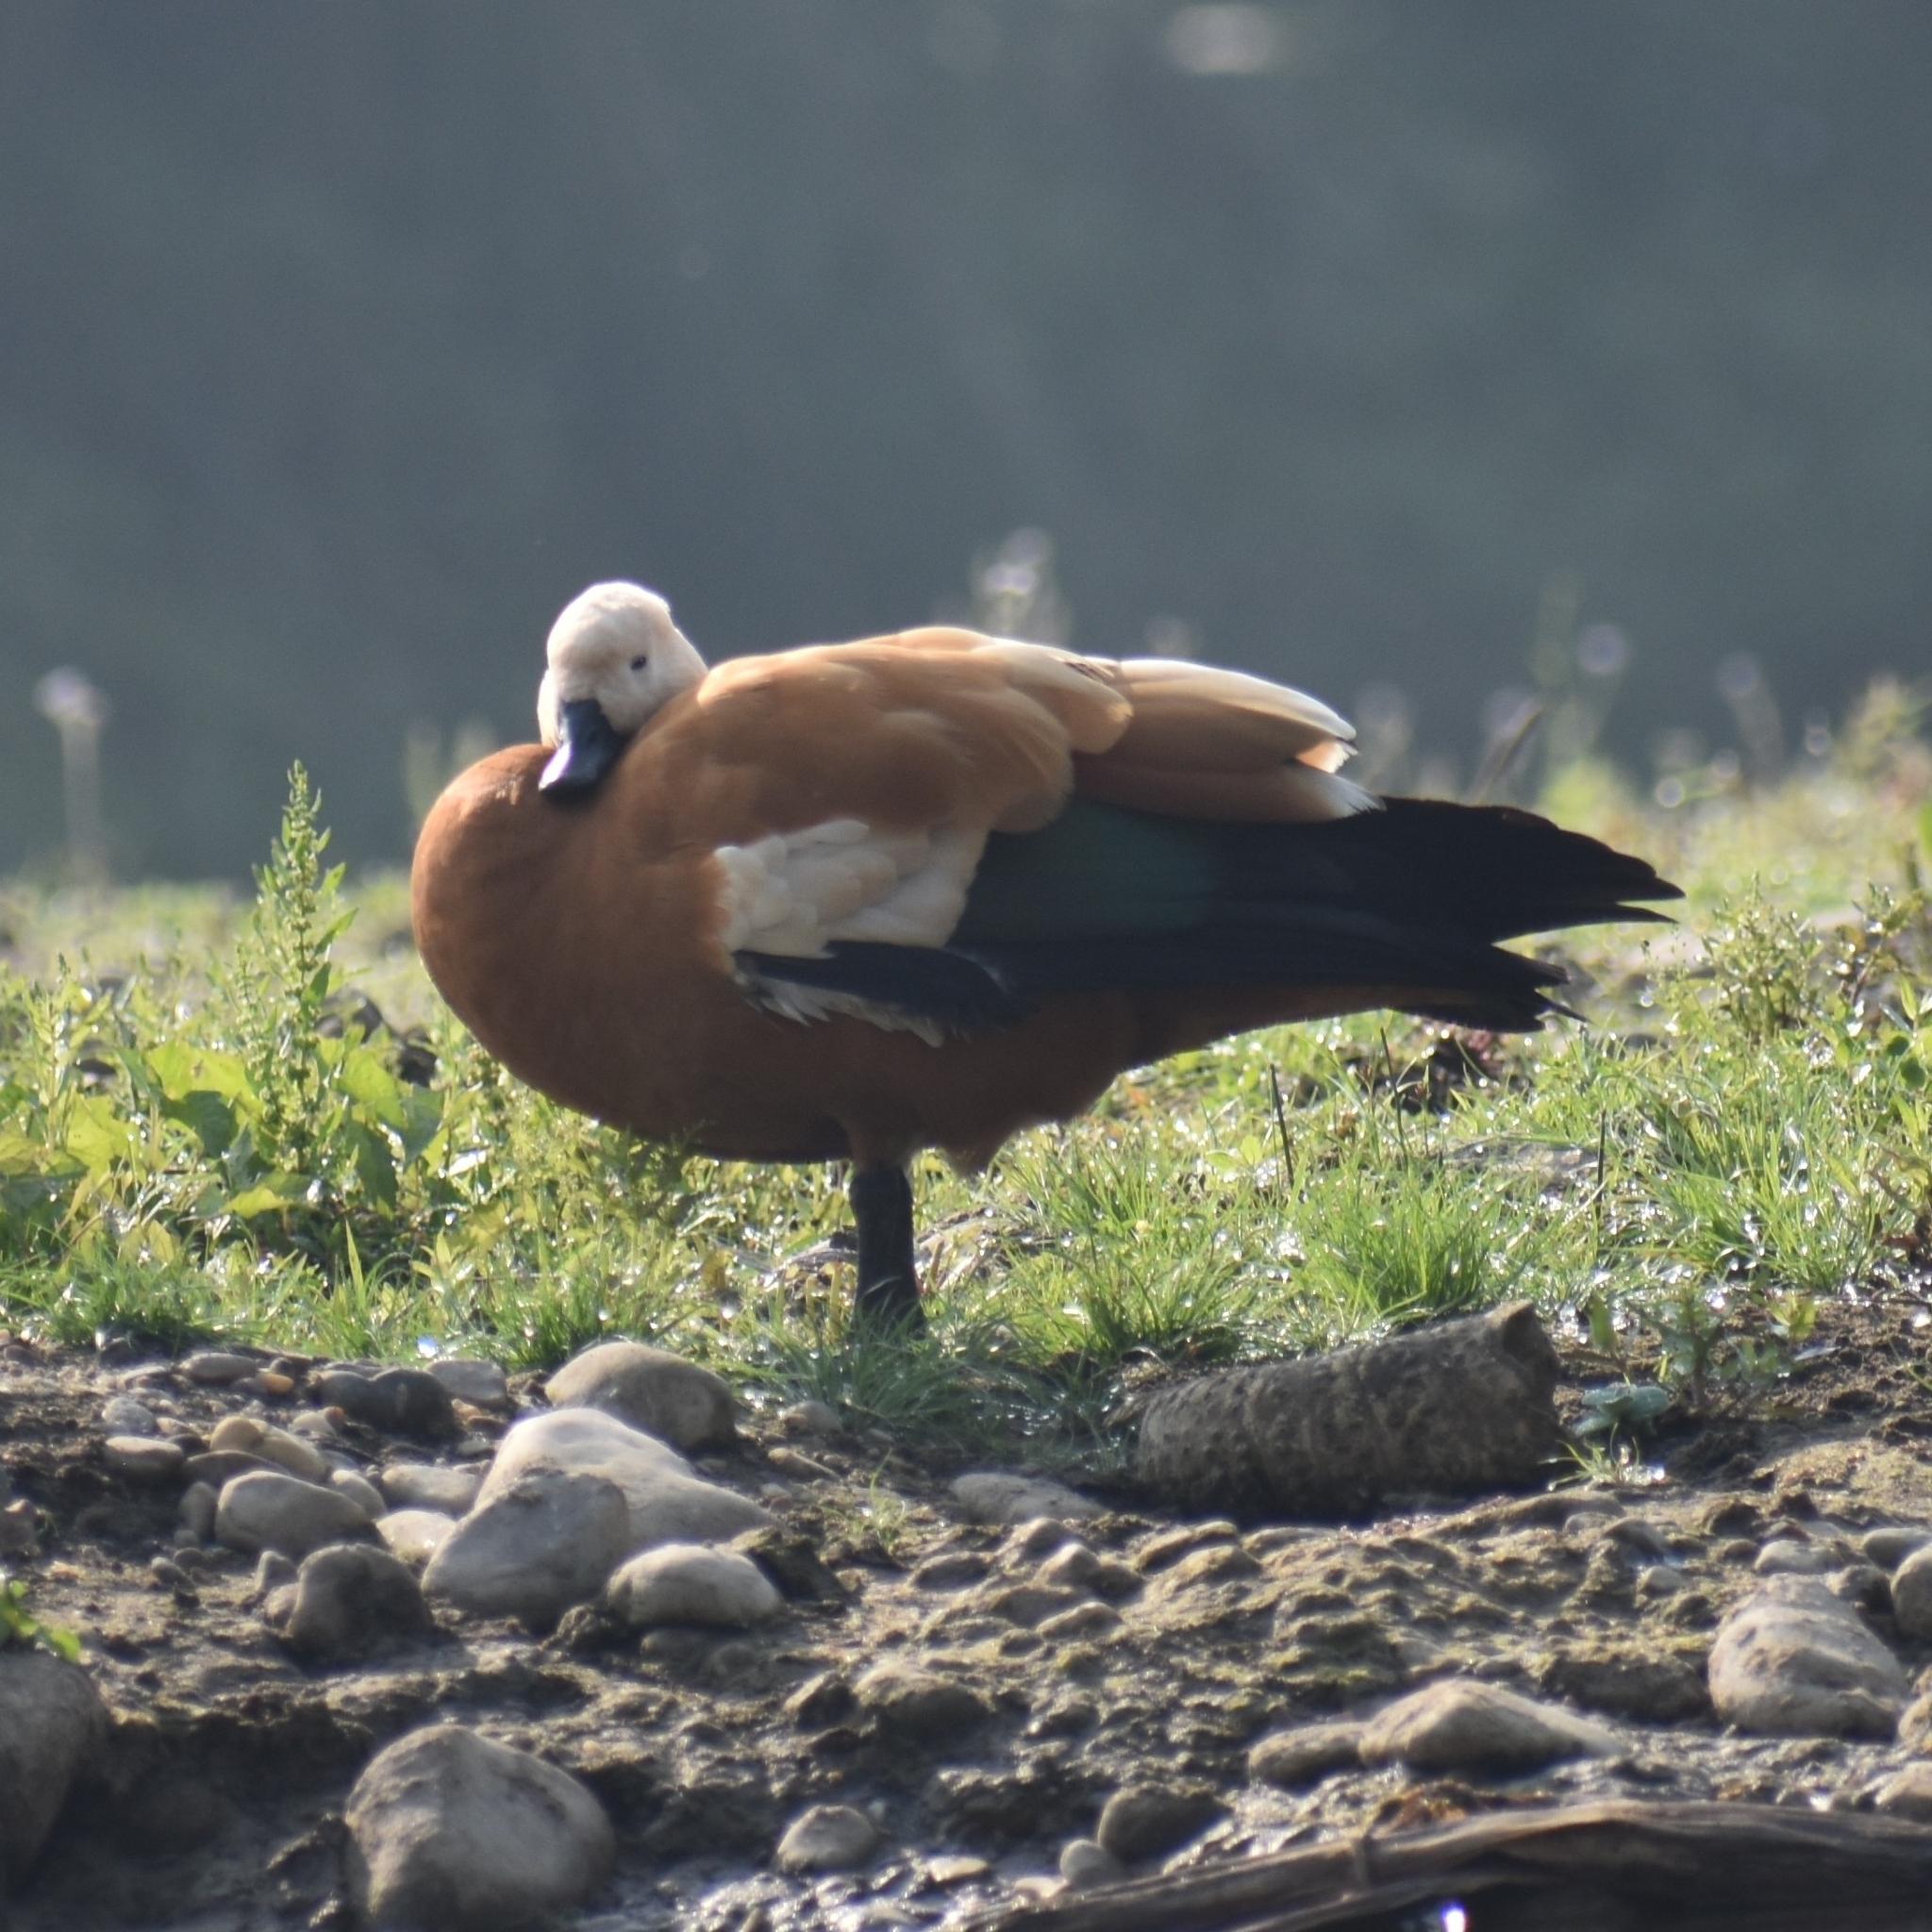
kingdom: Animalia
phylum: Chordata
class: Aves
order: Anseriformes
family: Anatidae
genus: Tadorna
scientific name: Tadorna ferruginea
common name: Ruddy shelduck
